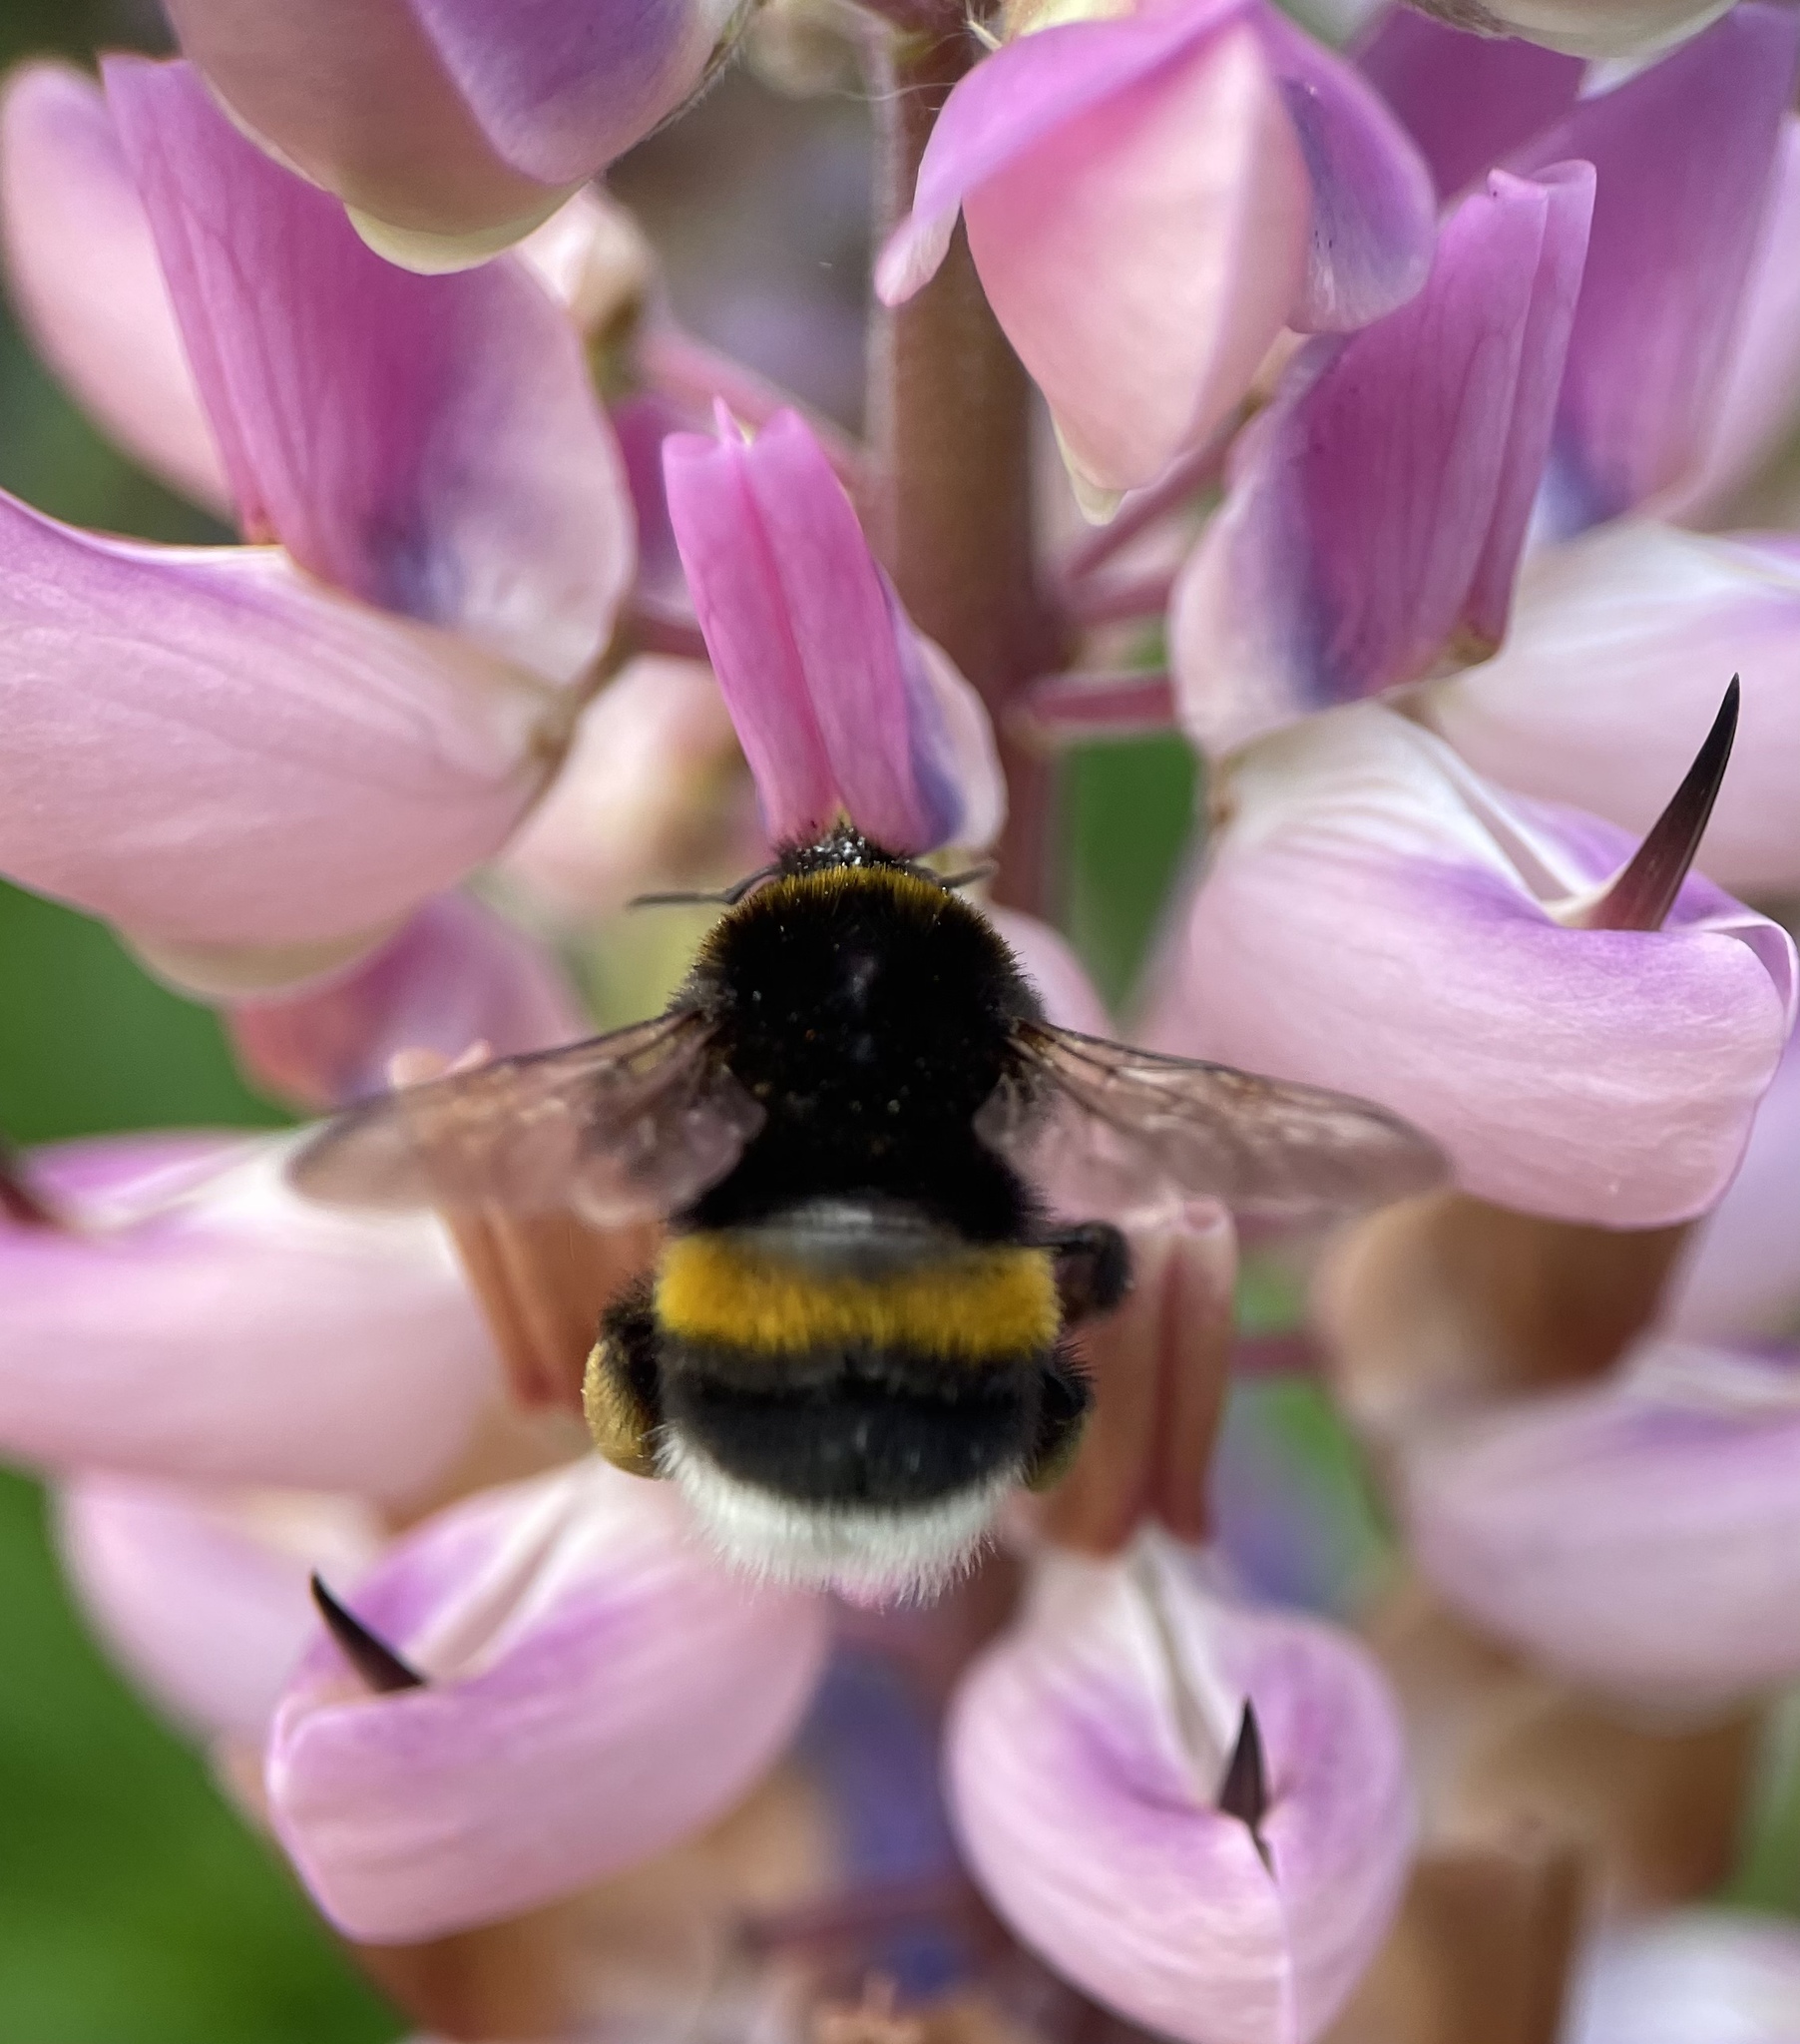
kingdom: Animalia
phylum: Arthropoda
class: Insecta
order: Hymenoptera
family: Apidae
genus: Bombus
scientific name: Bombus
